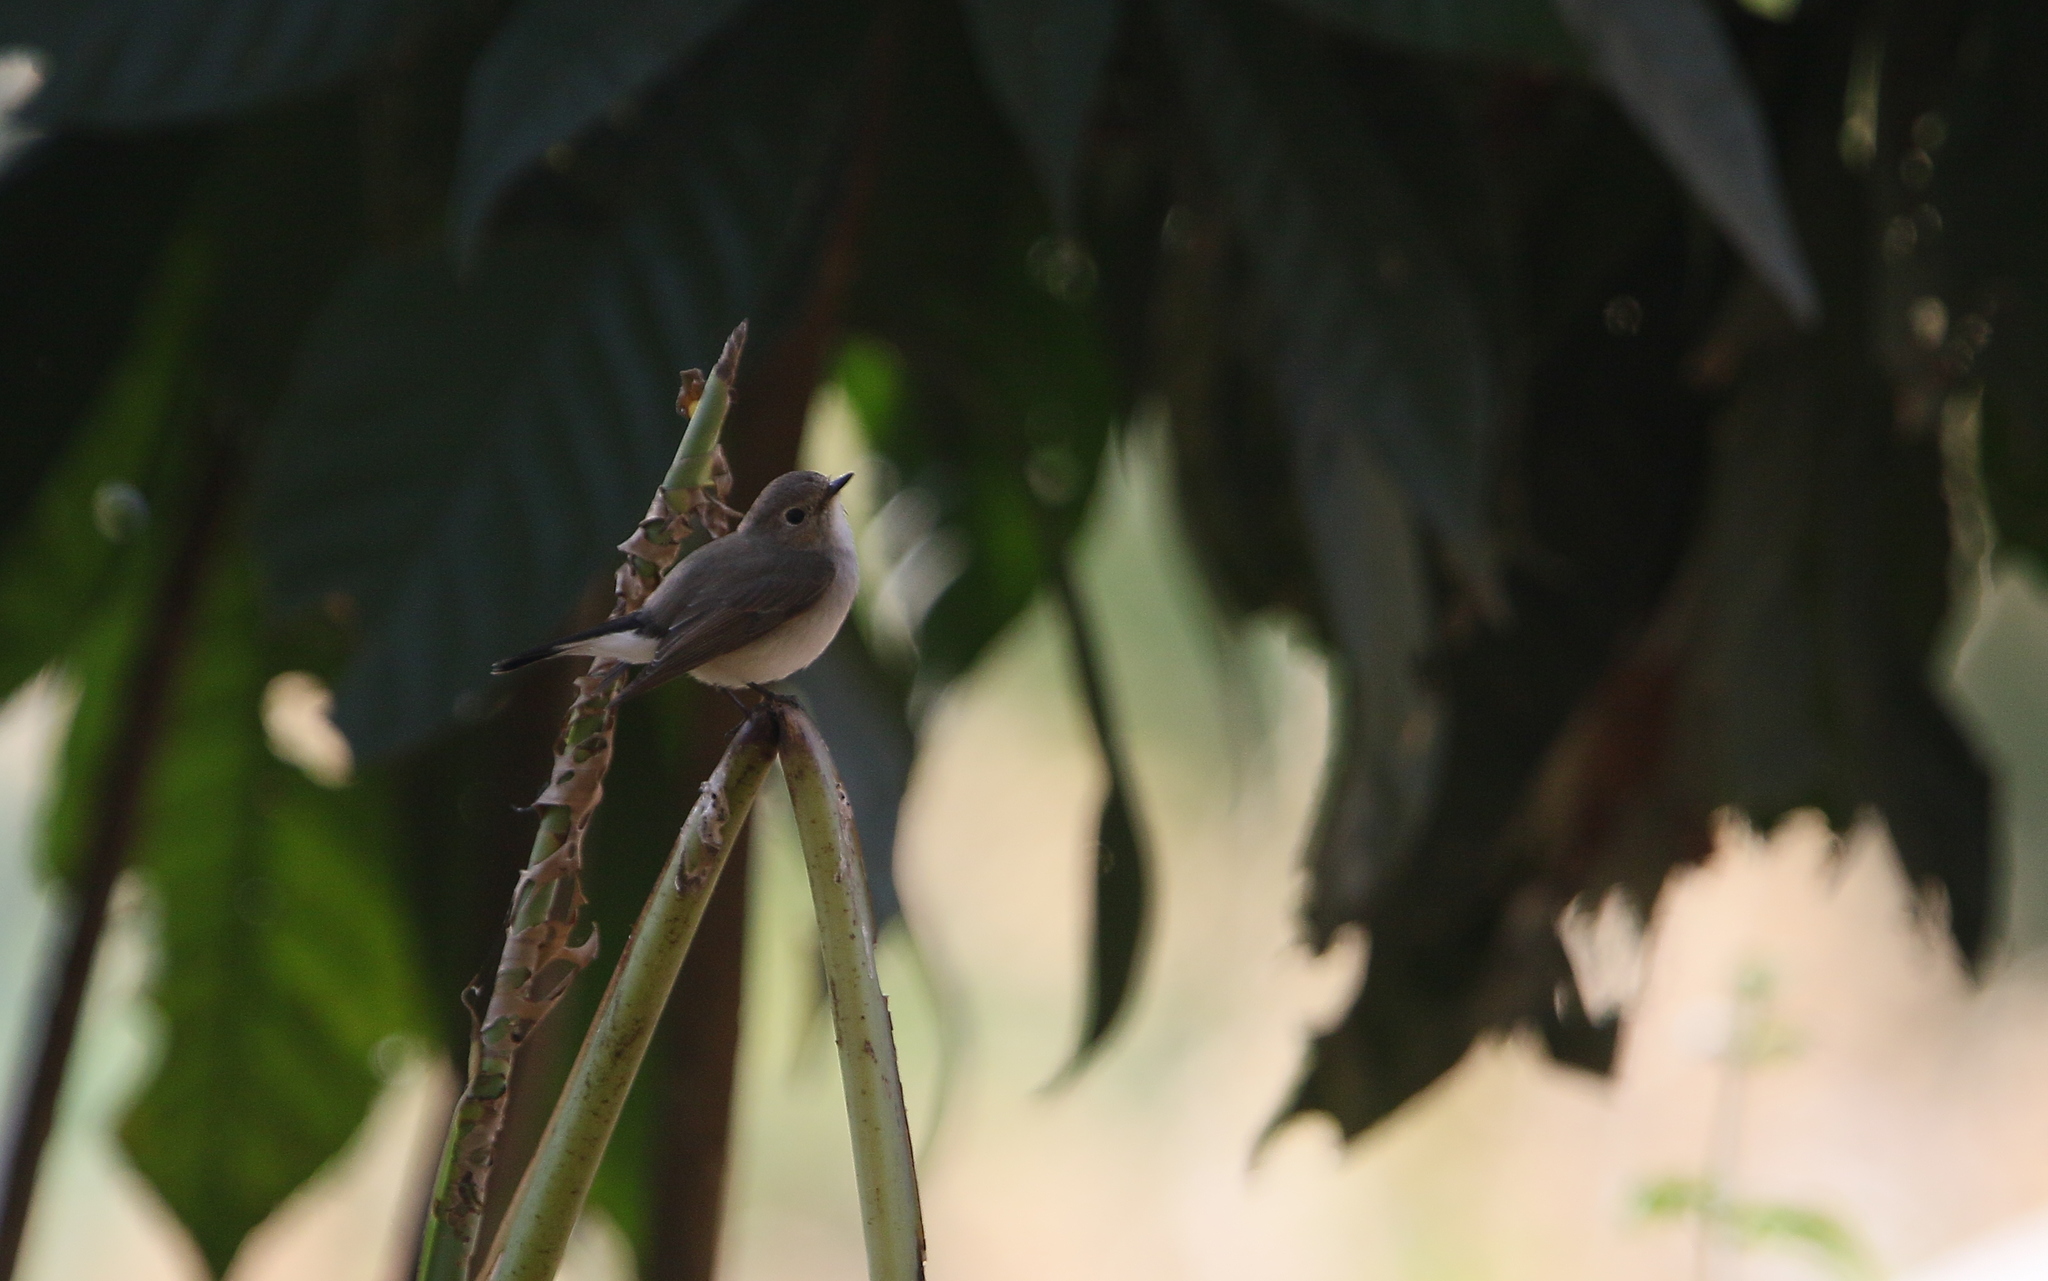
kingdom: Animalia
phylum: Chordata
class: Aves
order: Passeriformes
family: Muscicapidae
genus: Ficedula
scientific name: Ficedula albicilla
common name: Taiga flycatcher
